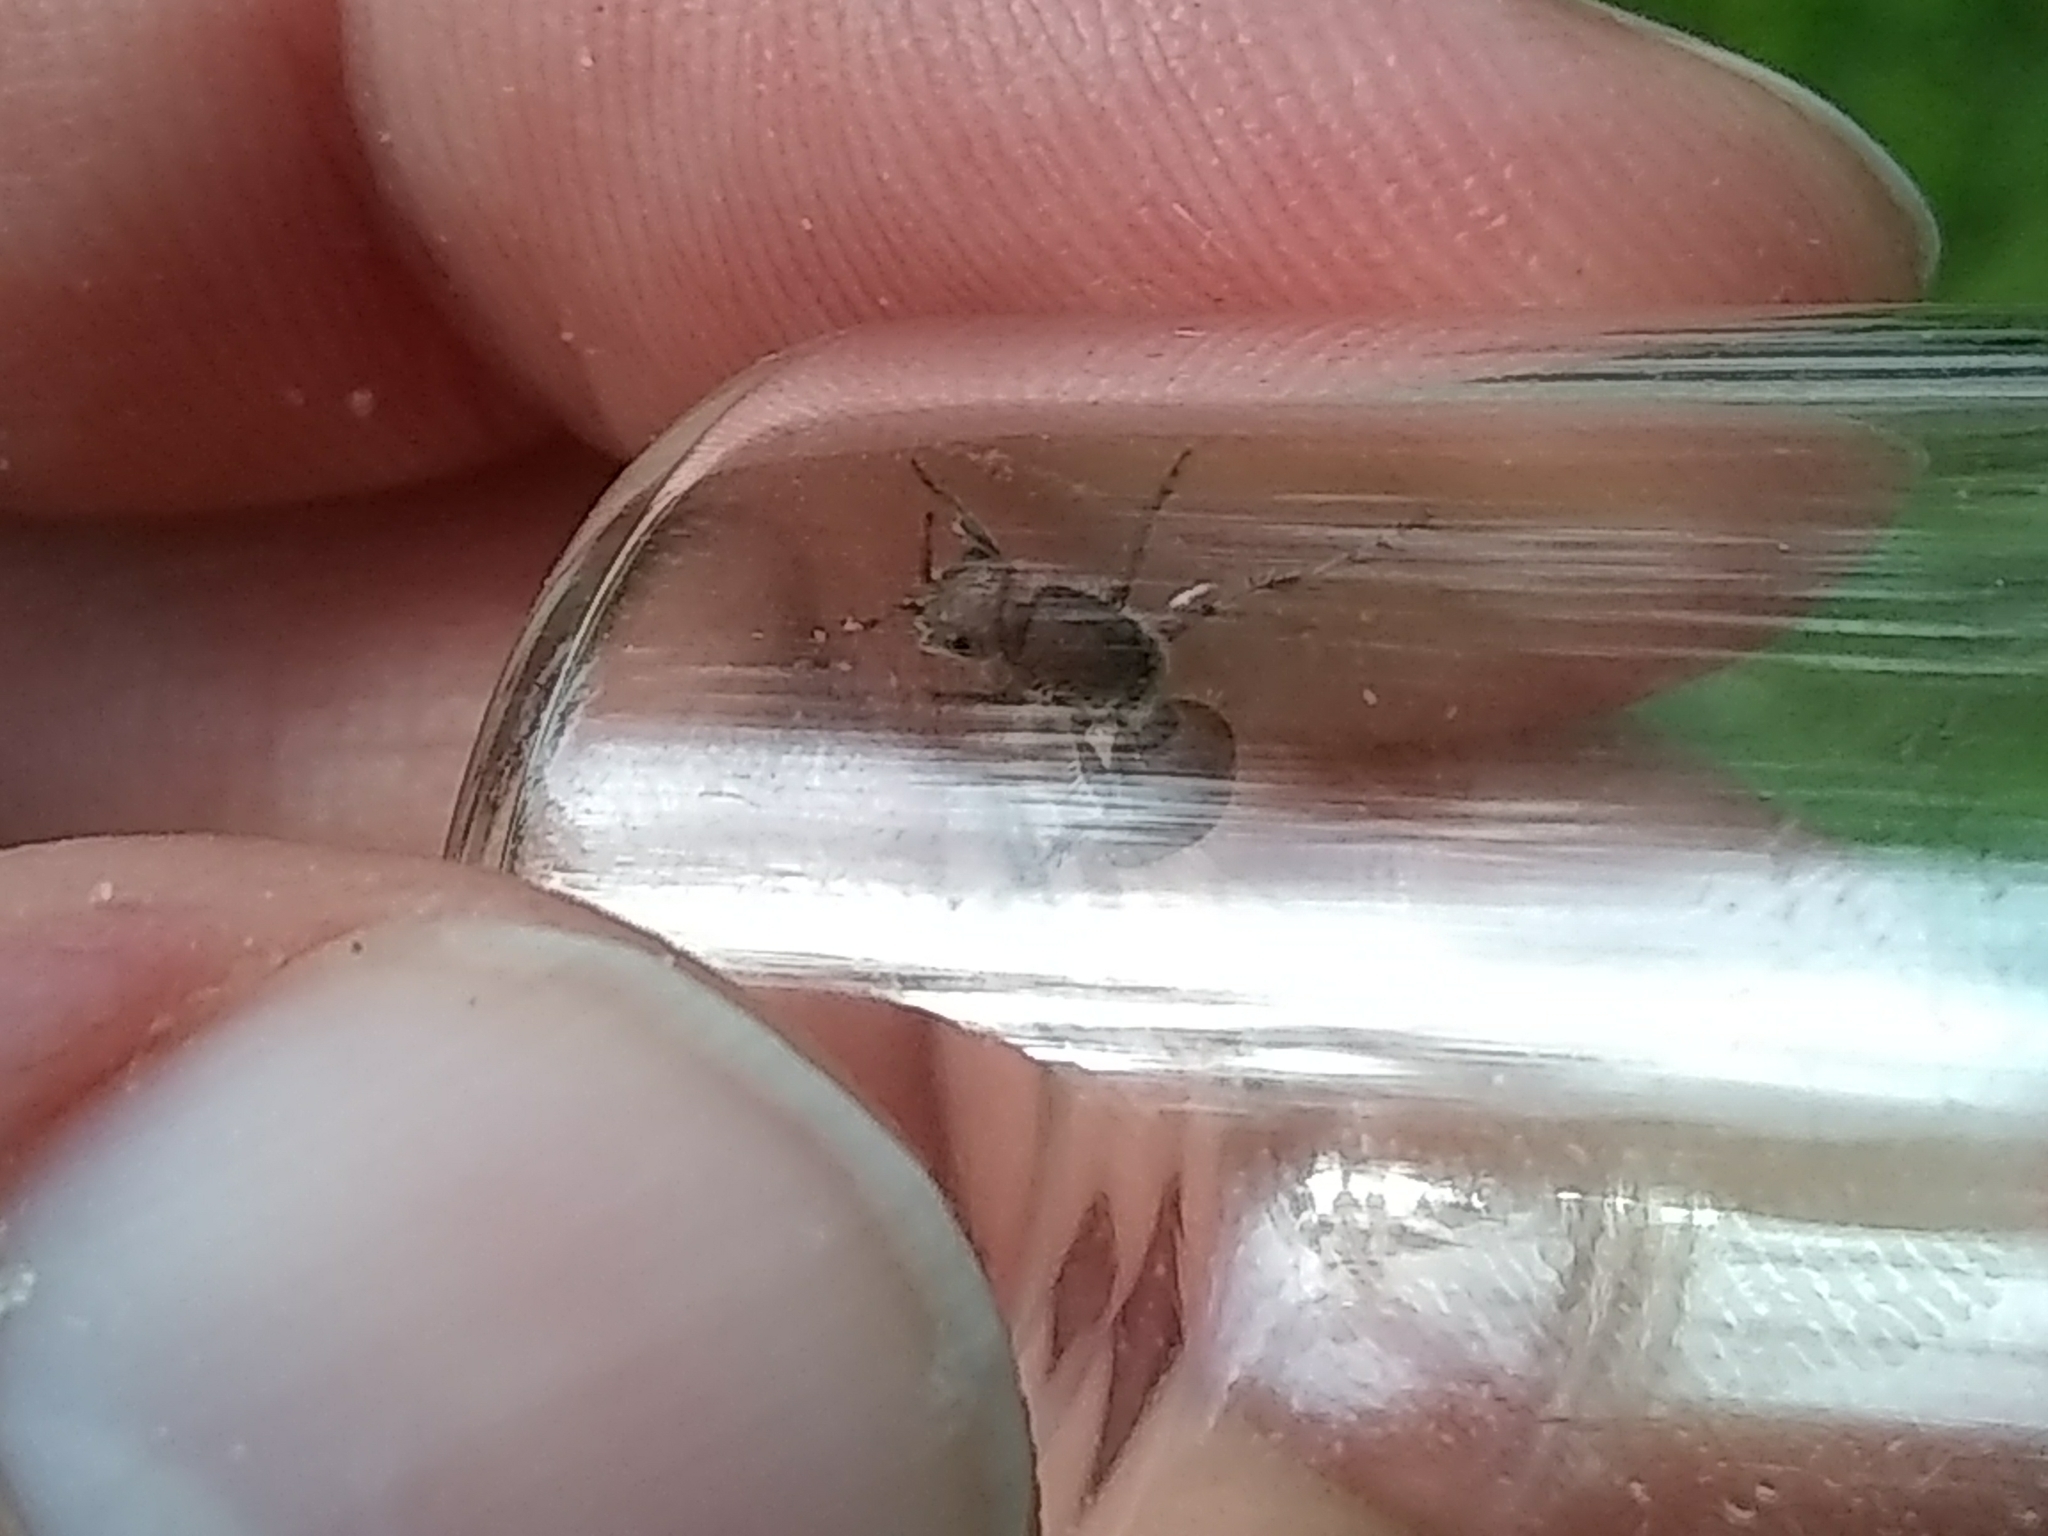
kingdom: Animalia
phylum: Arthropoda
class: Insecta
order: Hymenoptera
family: Mutillidae
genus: Dasymutilla
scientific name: Dasymutilla birkmani
